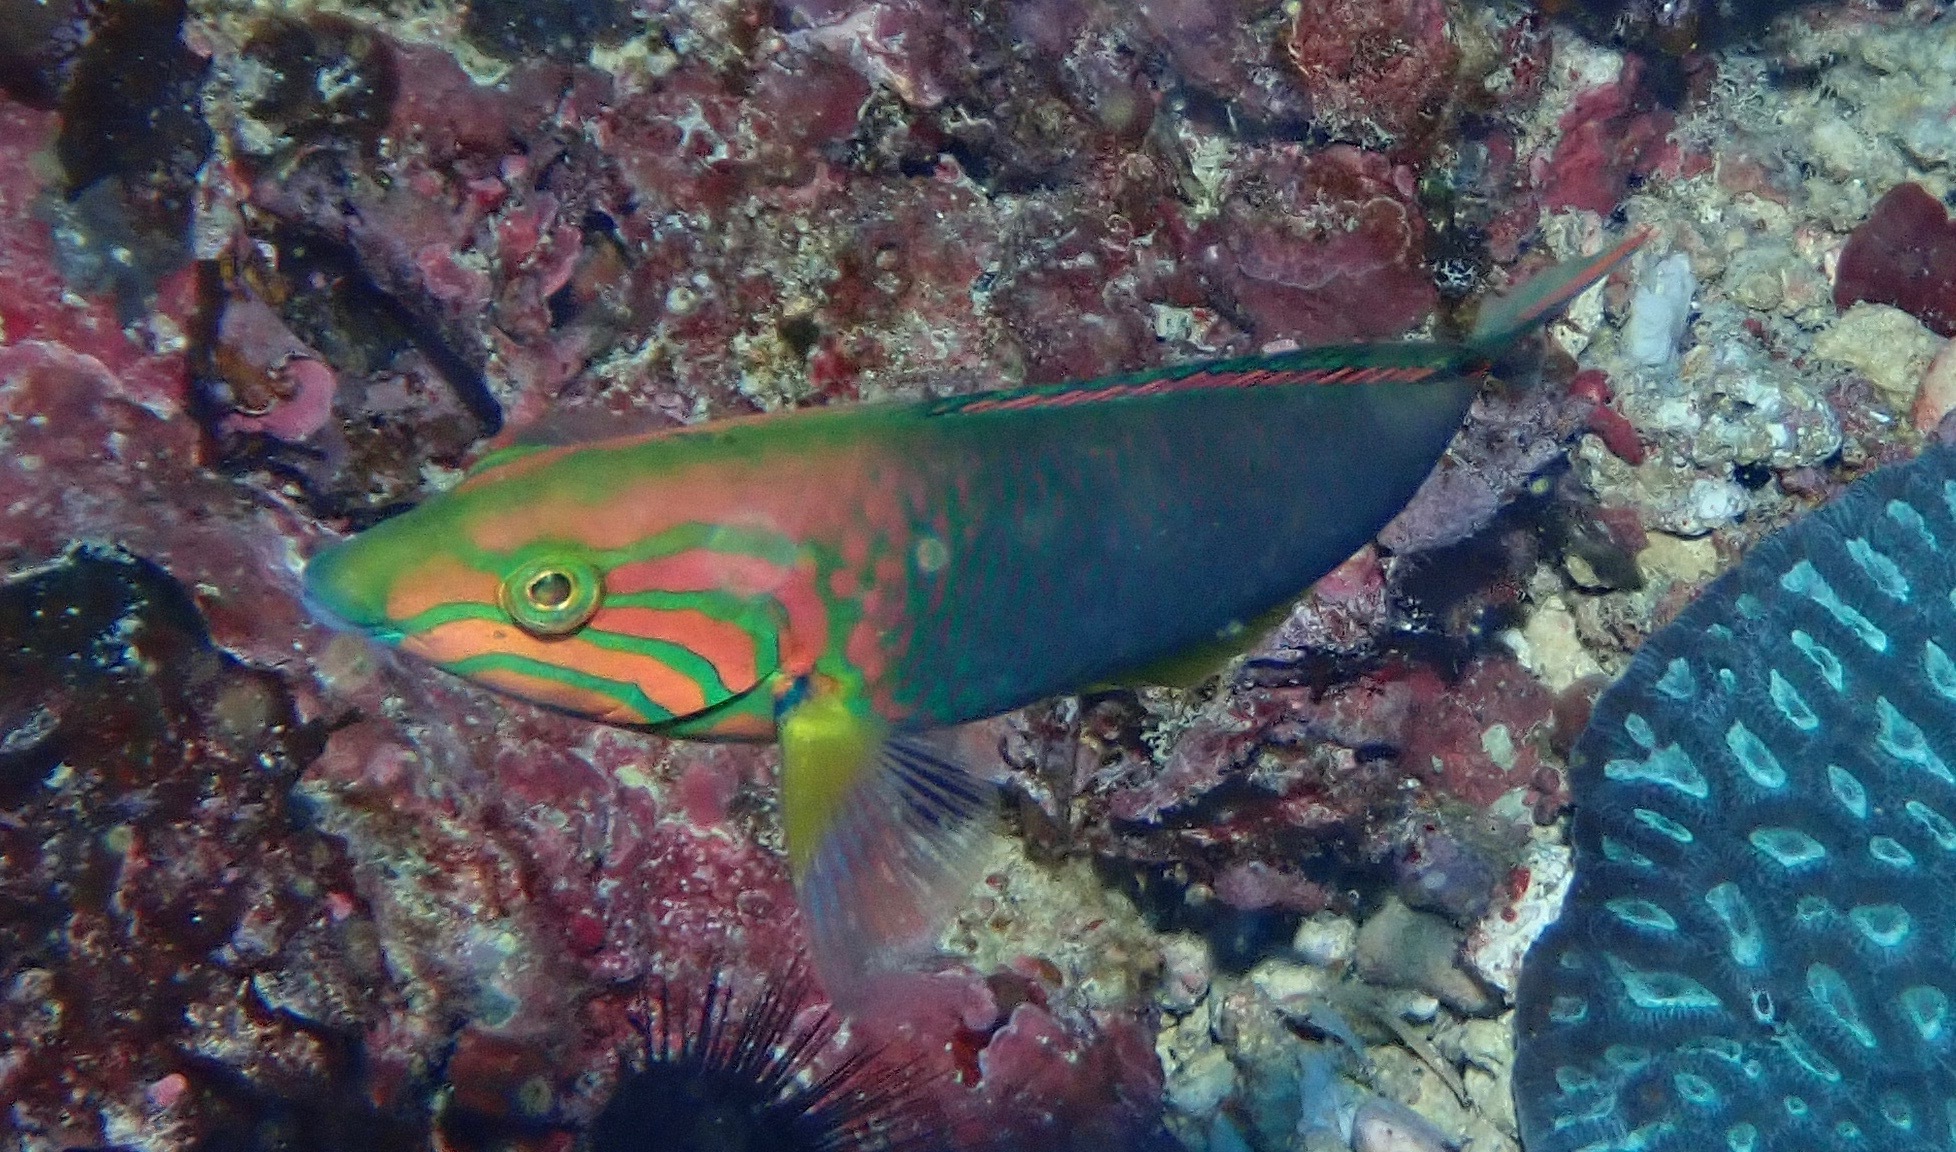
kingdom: Animalia
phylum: Chordata
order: Perciformes
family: Labridae
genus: Thalassoma
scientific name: Thalassoma lutescens
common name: Green moon wrasse
